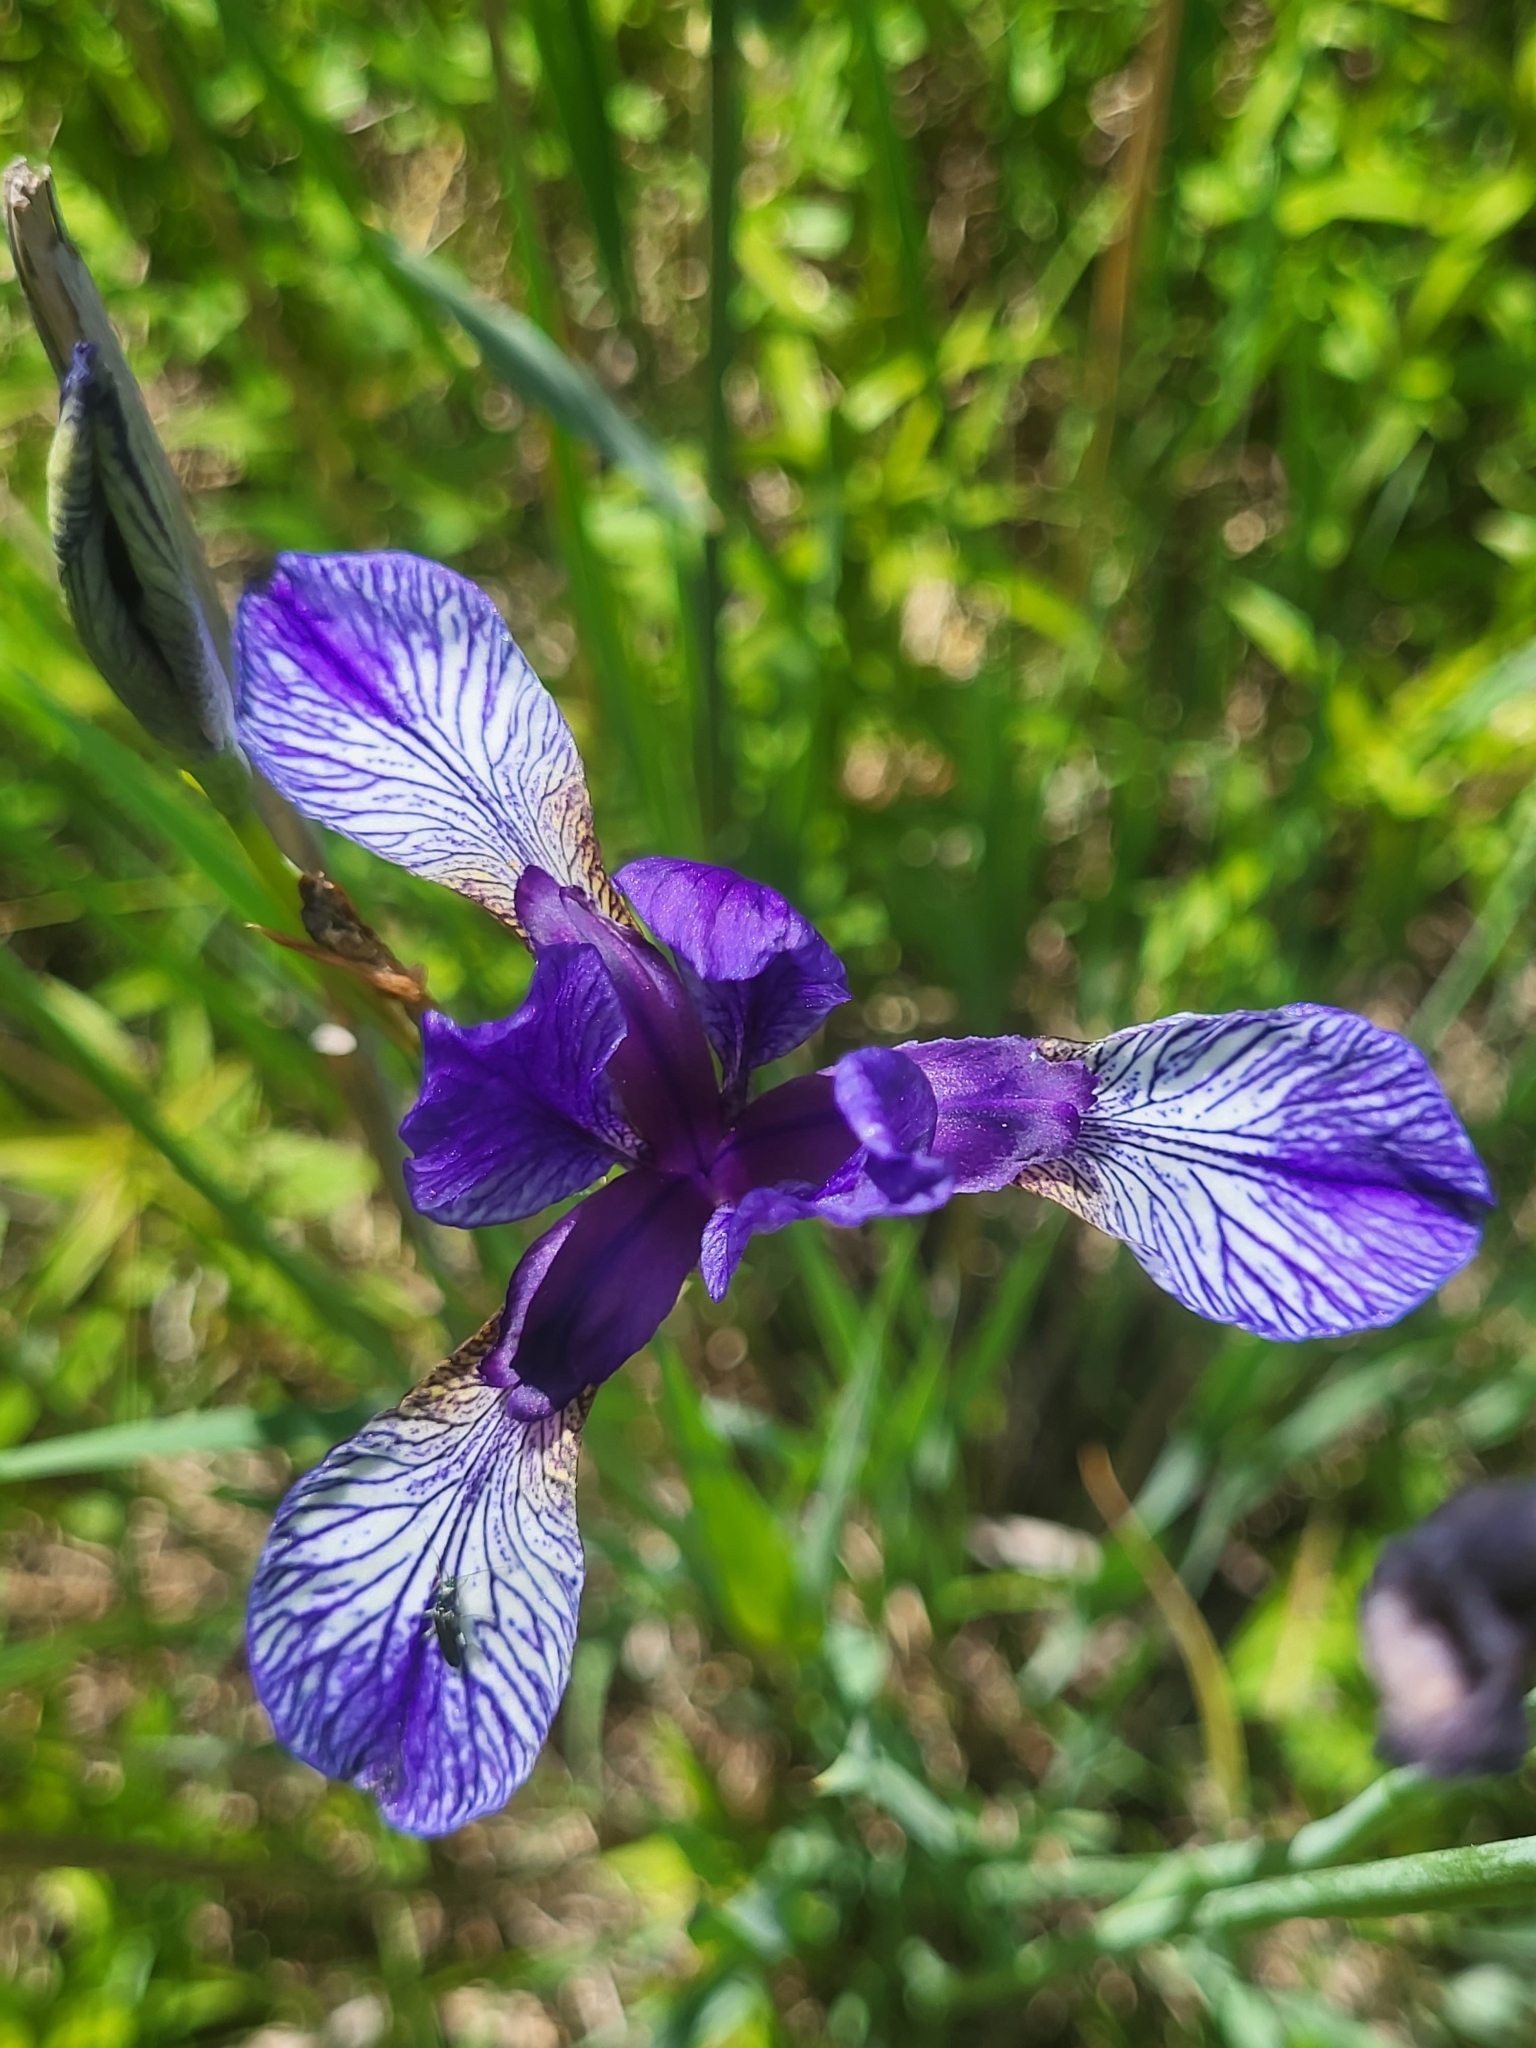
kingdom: Plantae
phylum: Tracheophyta
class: Liliopsida
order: Asparagales
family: Iridaceae
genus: Iris
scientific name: Iris sibirica
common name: Siberian iris
